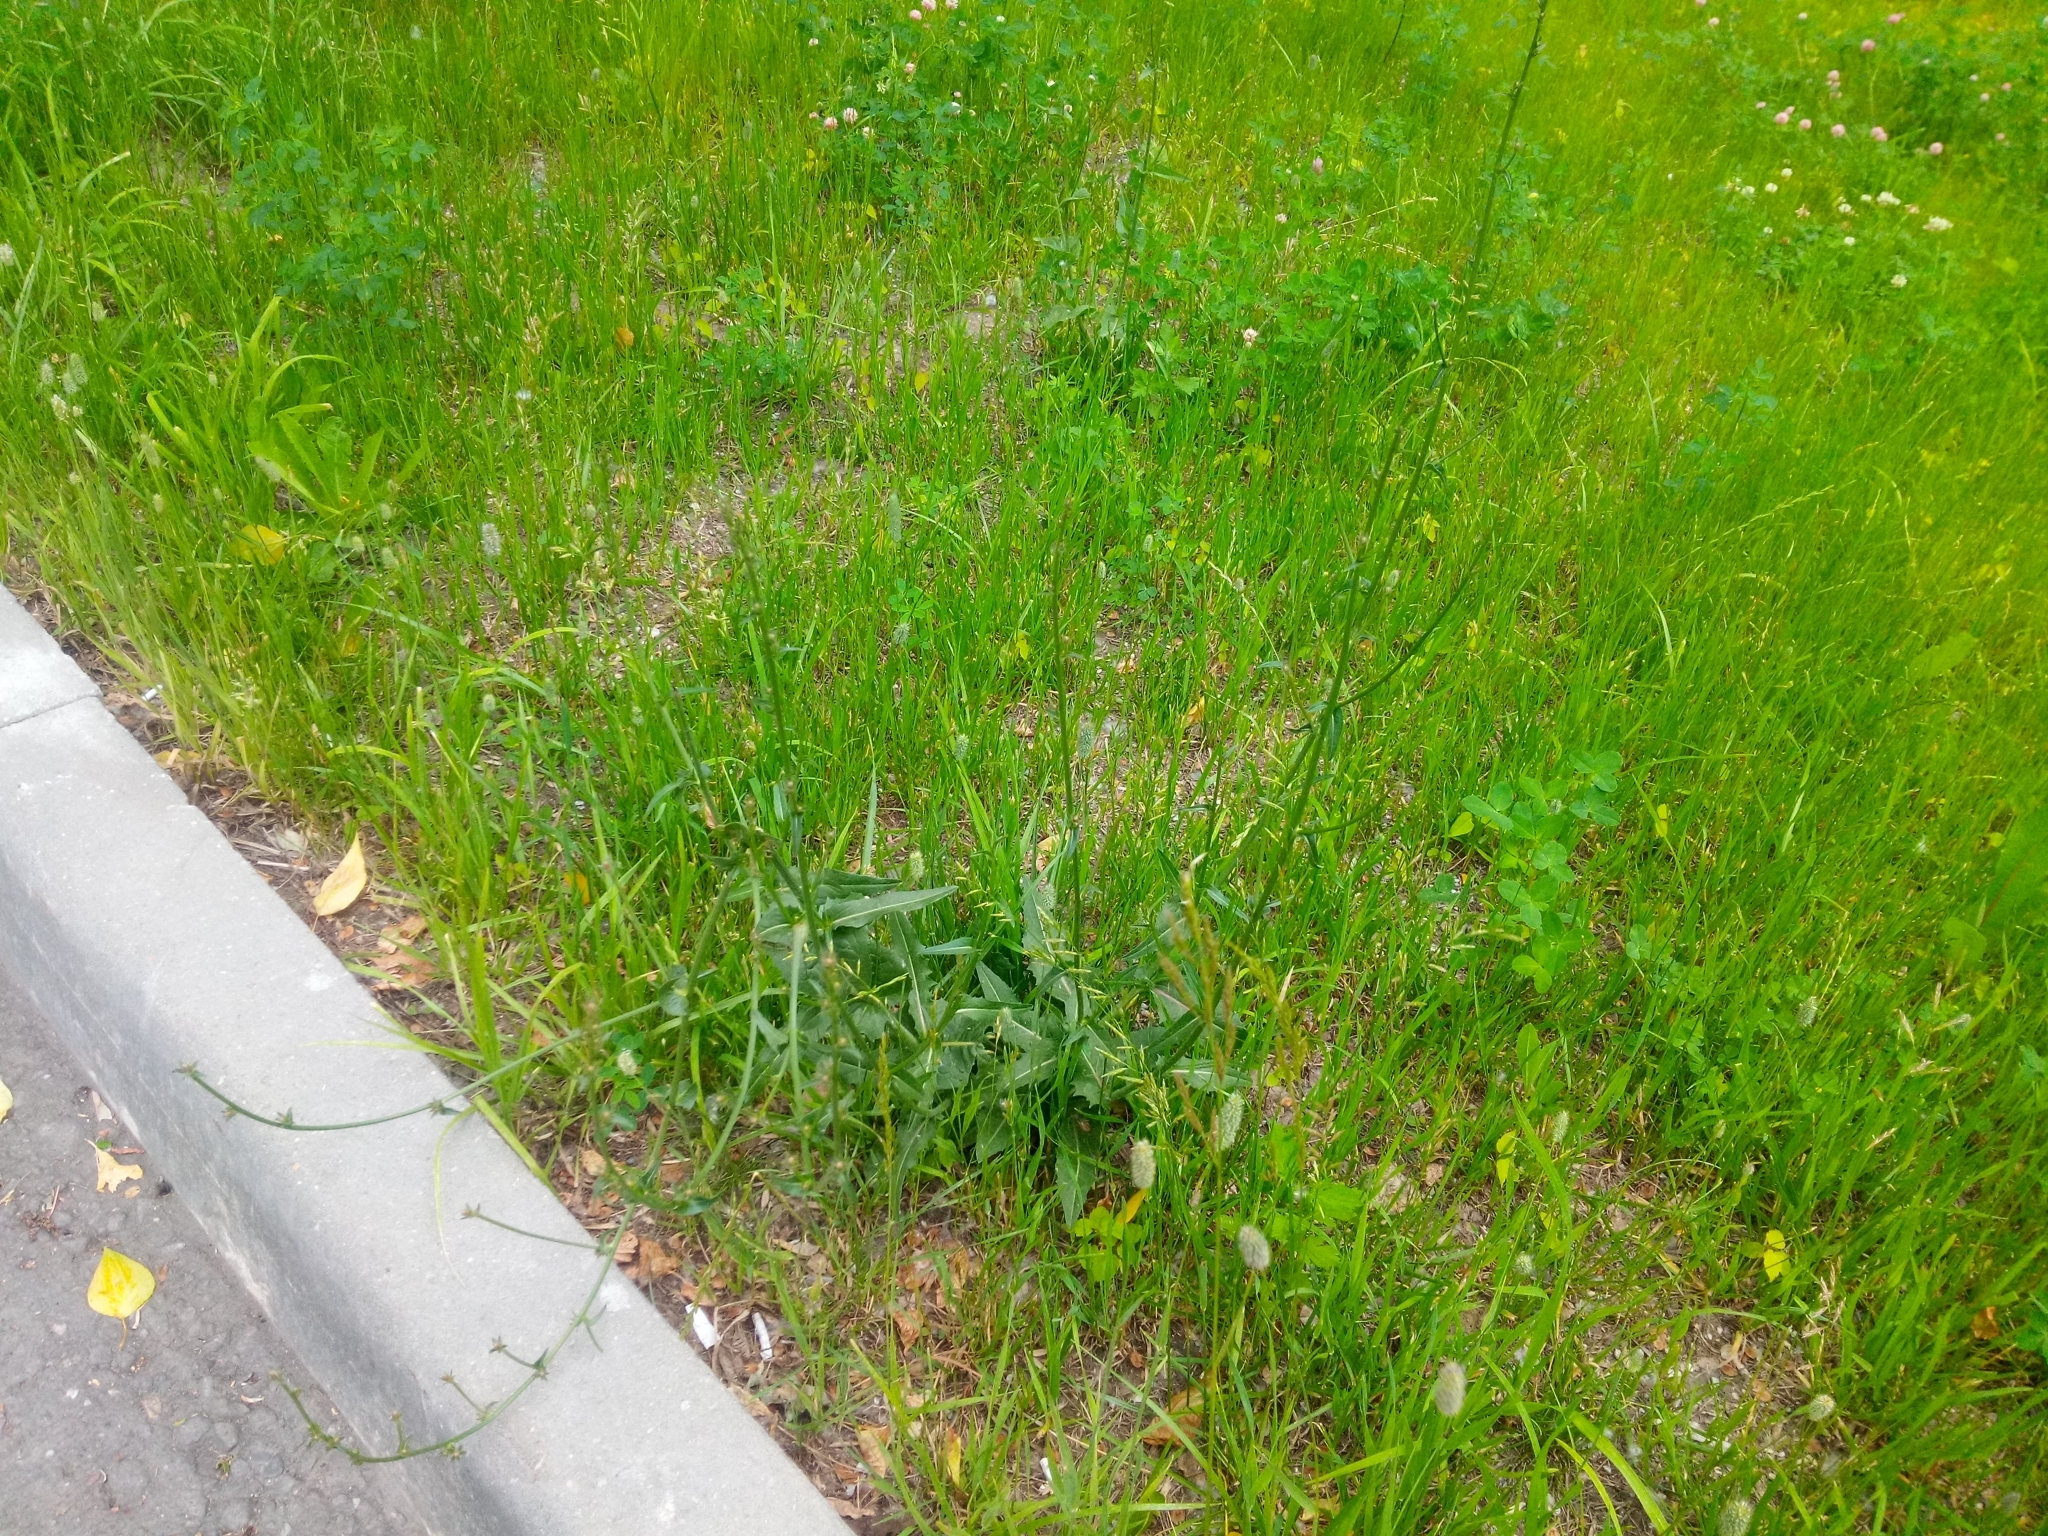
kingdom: Plantae
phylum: Tracheophyta
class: Magnoliopsida
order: Asterales
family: Asteraceae
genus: Cichorium
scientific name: Cichorium intybus
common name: Chicory
